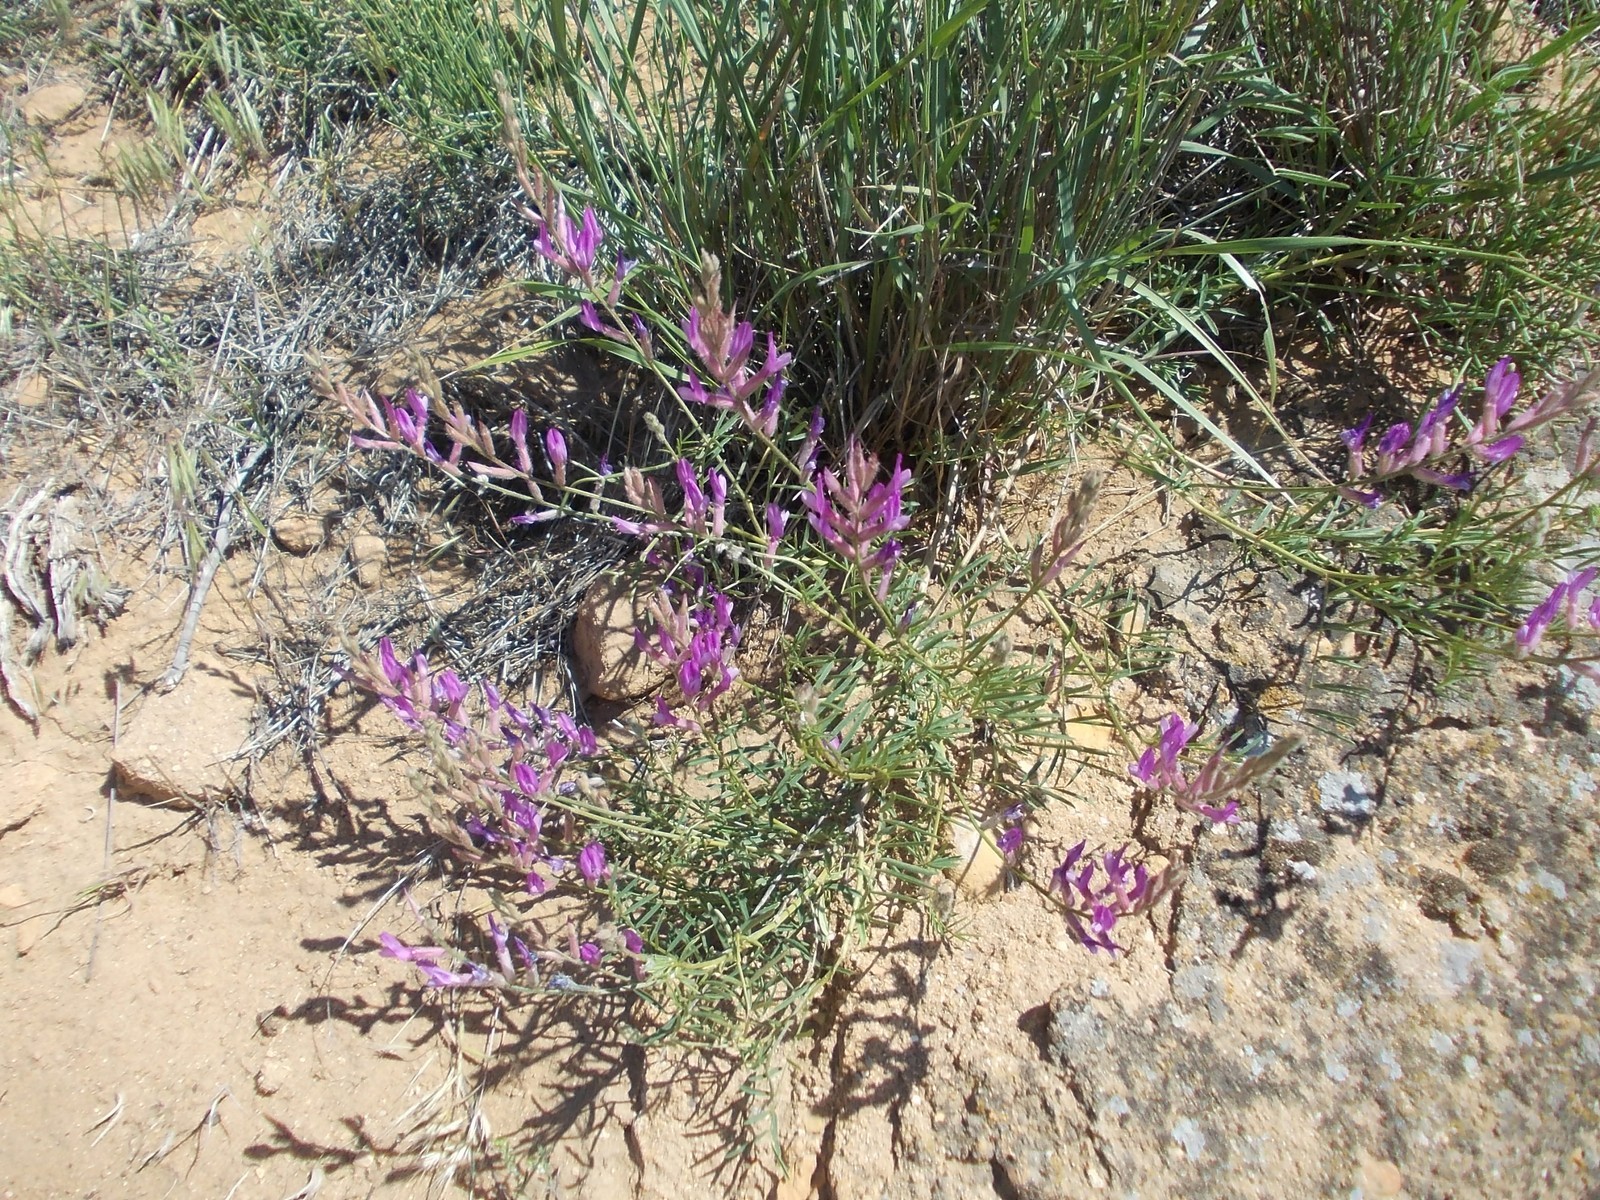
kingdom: Plantae
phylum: Tracheophyta
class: Magnoliopsida
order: Fabales
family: Fabaceae
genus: Astragalus
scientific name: Astragalus varius
